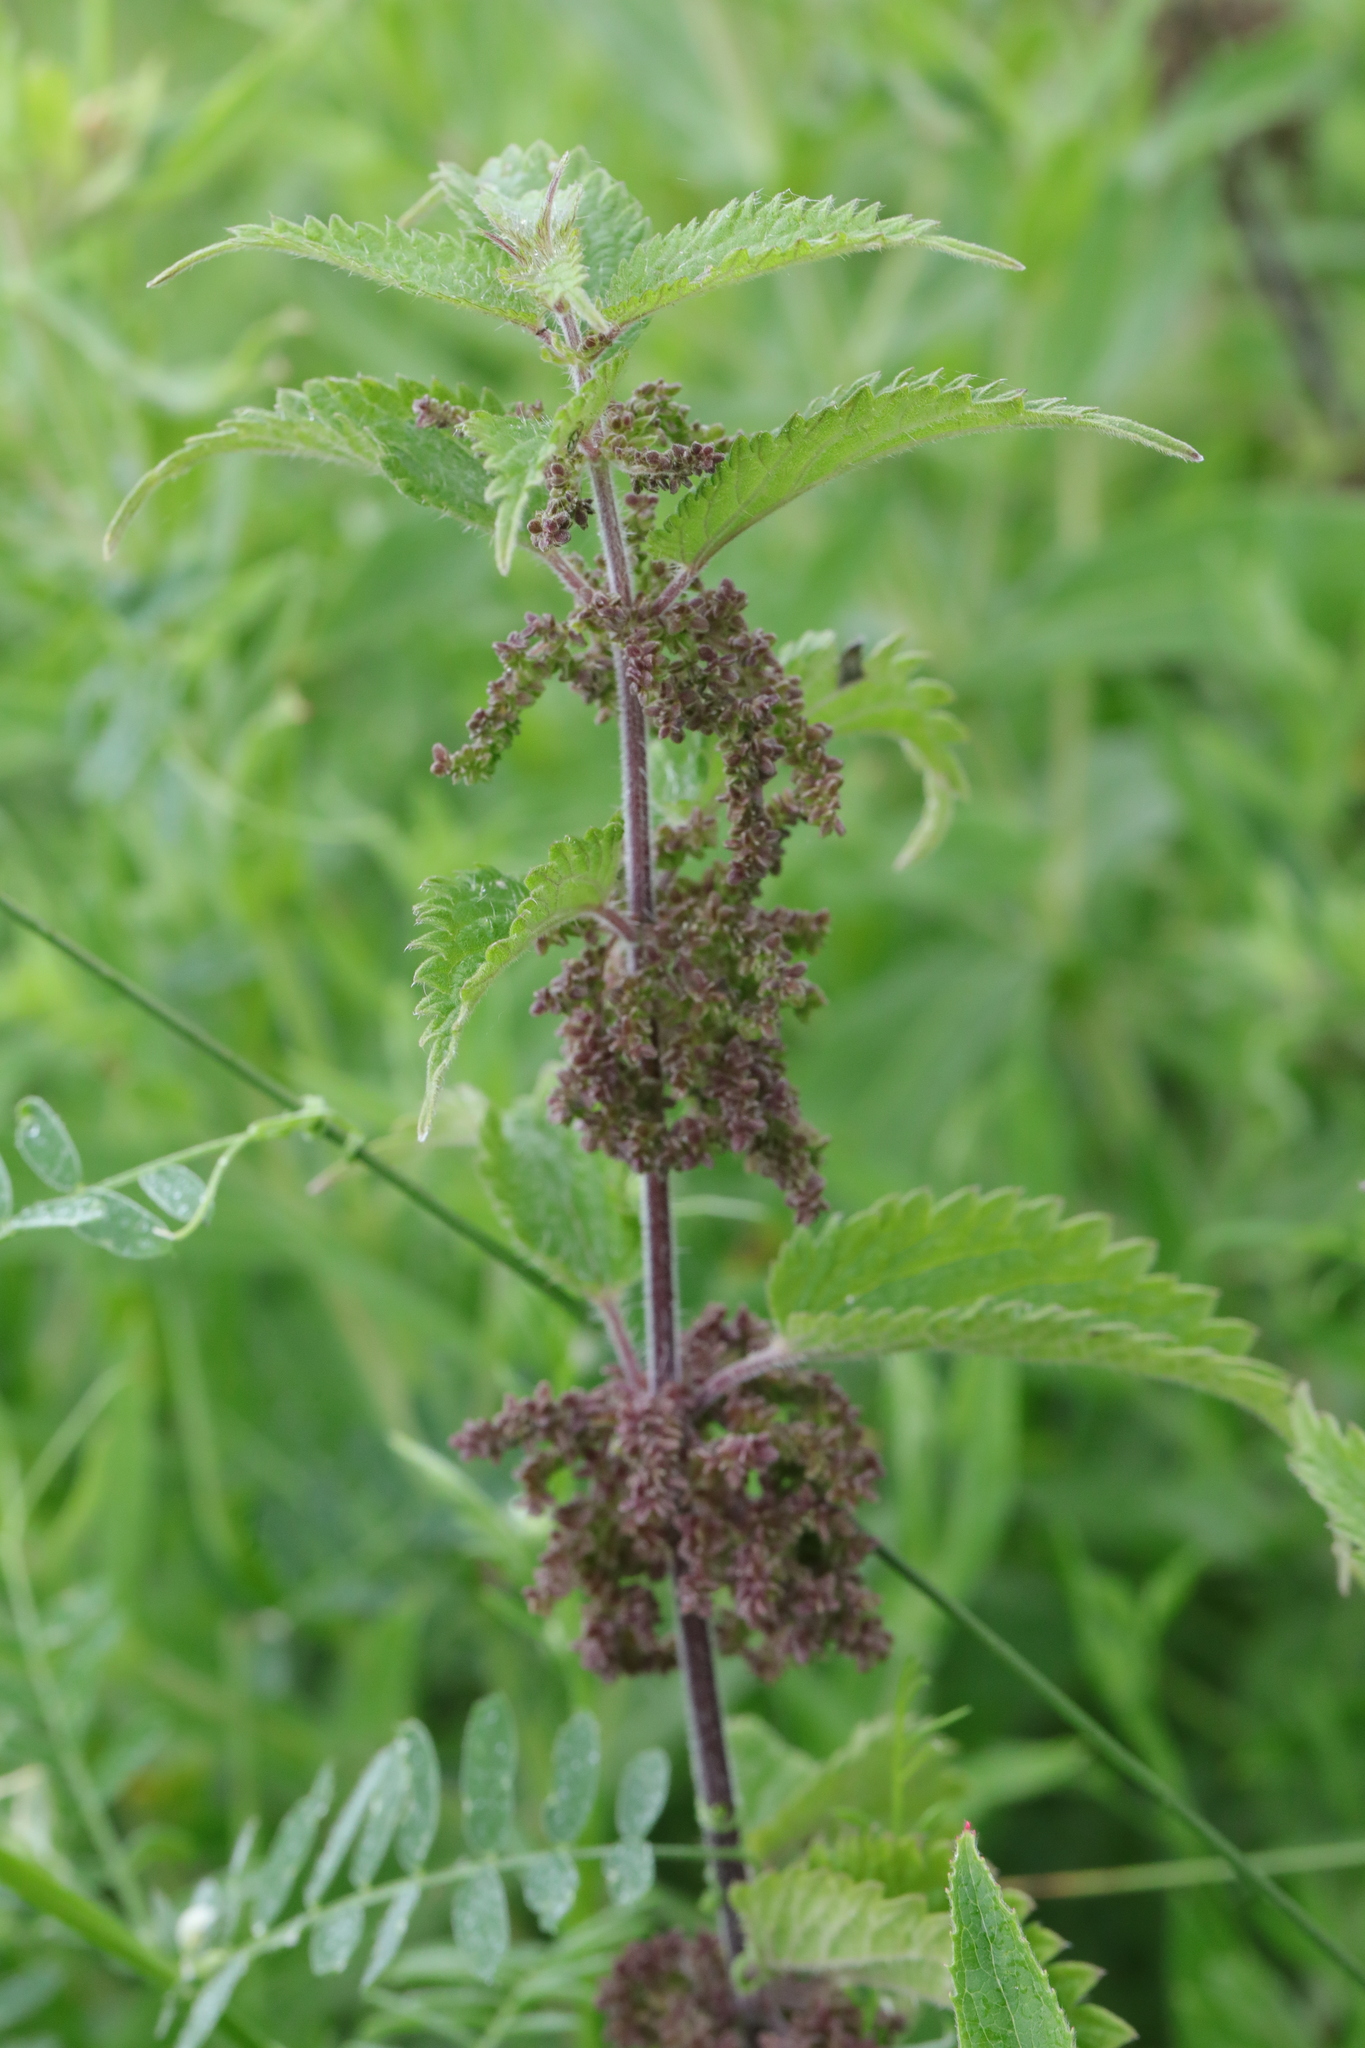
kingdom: Plantae
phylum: Tracheophyta
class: Magnoliopsida
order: Rosales
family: Urticaceae
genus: Urtica
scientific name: Urtica dioica
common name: Common nettle
